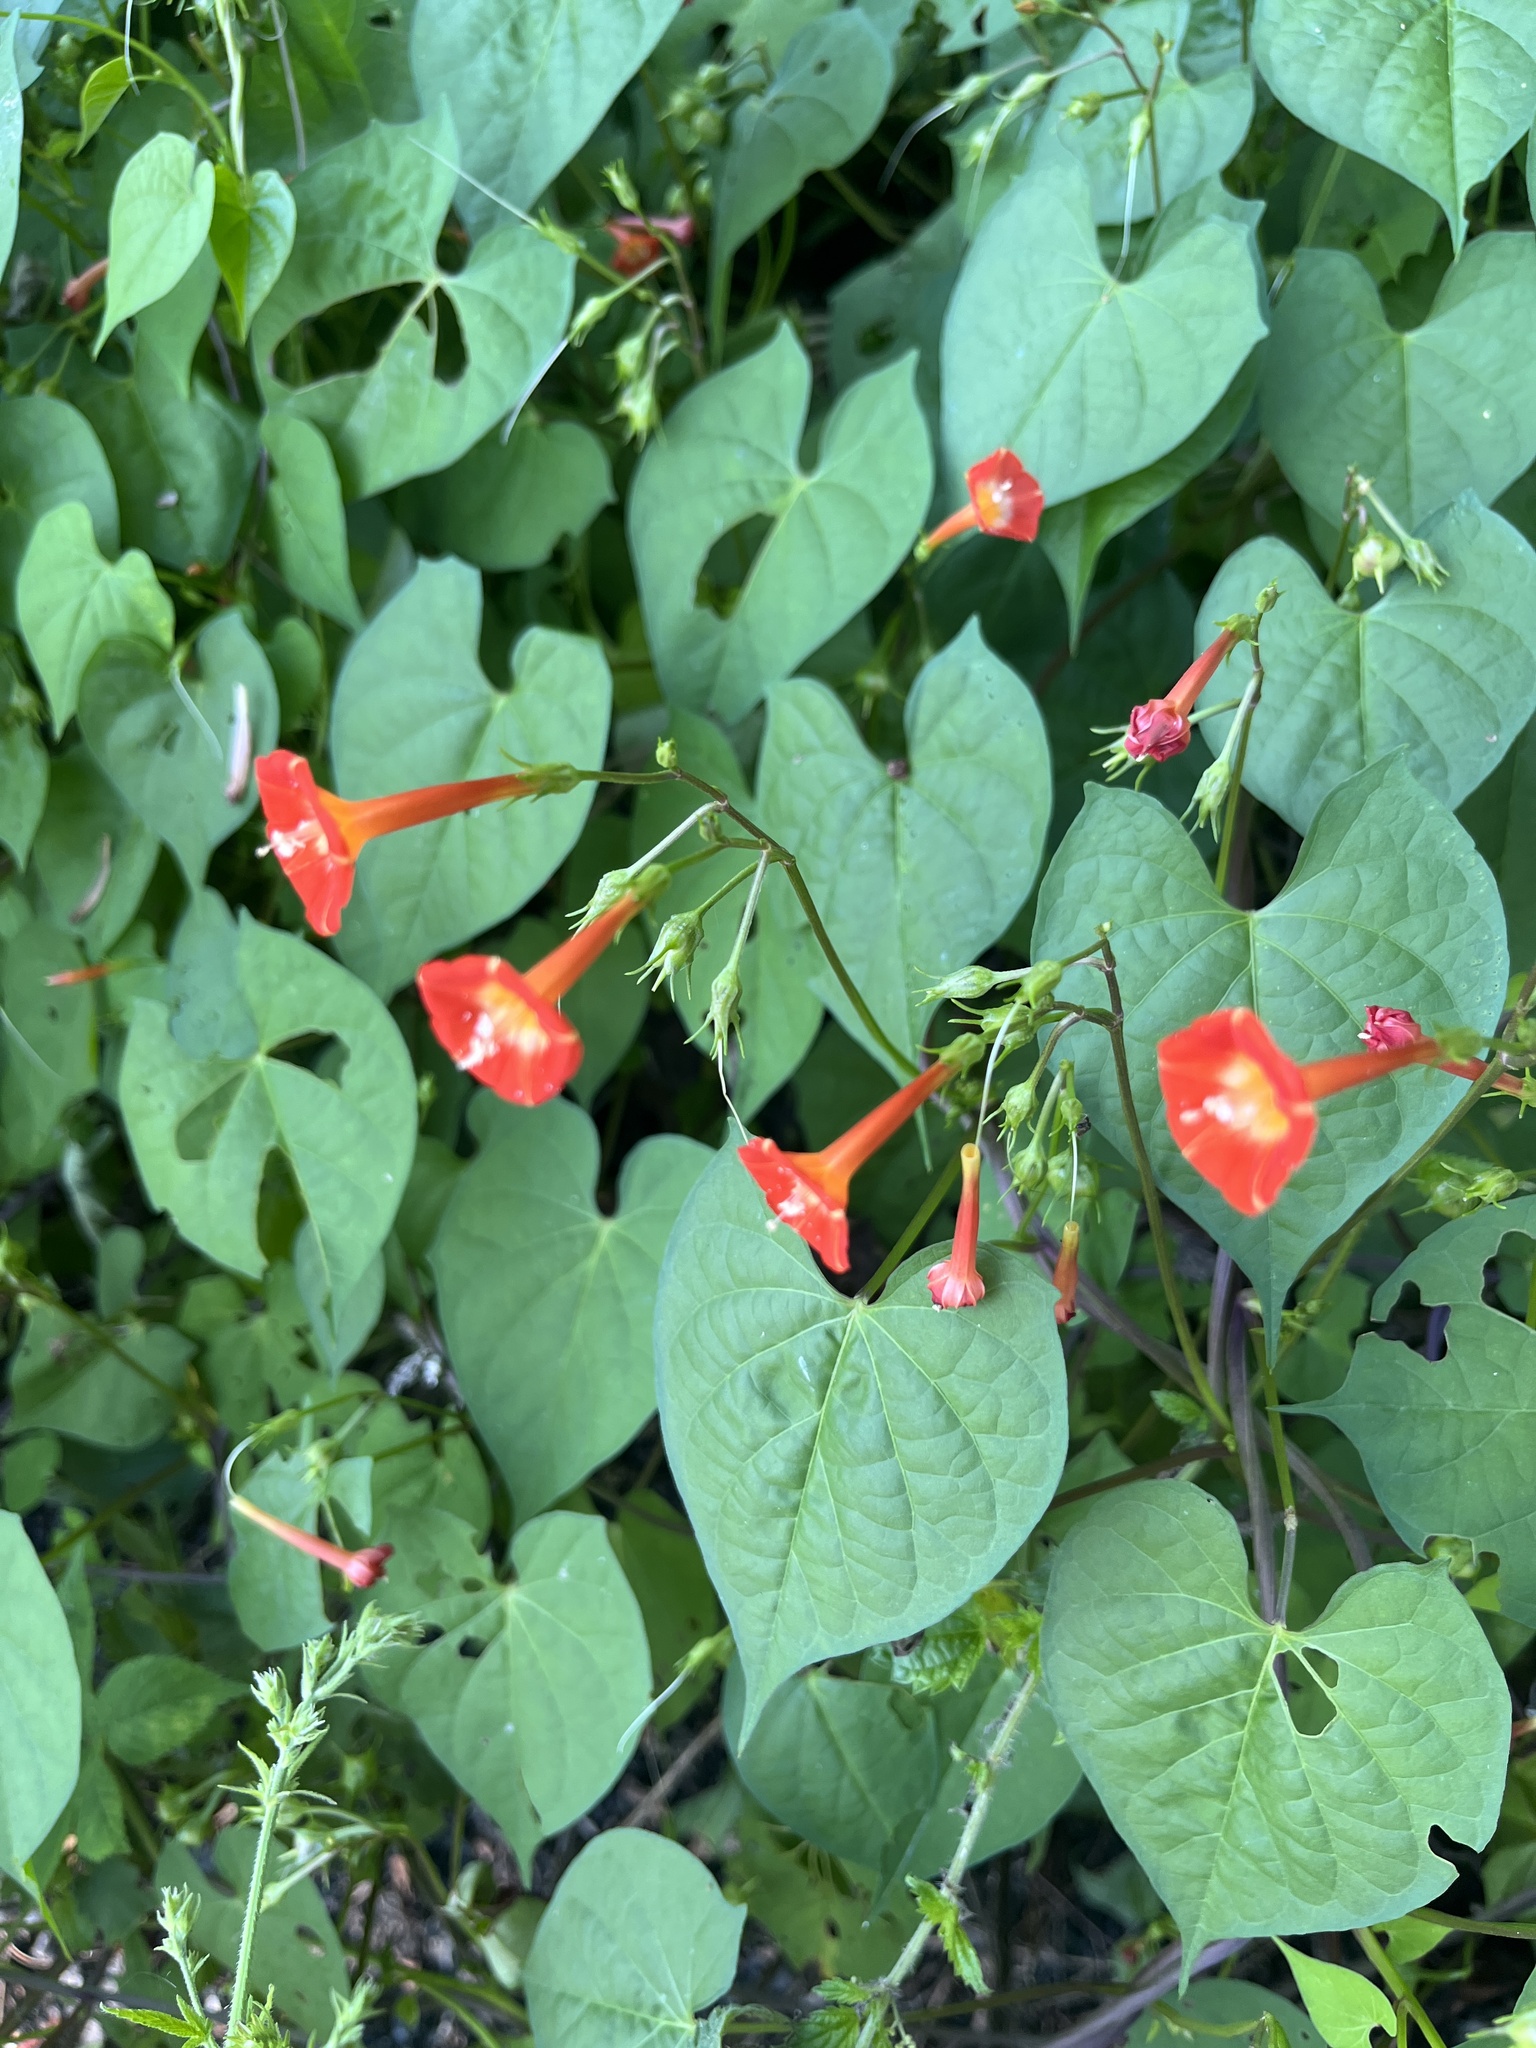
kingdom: Plantae
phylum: Tracheophyta
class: Magnoliopsida
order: Solanales
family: Convolvulaceae
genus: Ipomoea
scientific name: Ipomoea coccinea
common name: Red morning-glory
